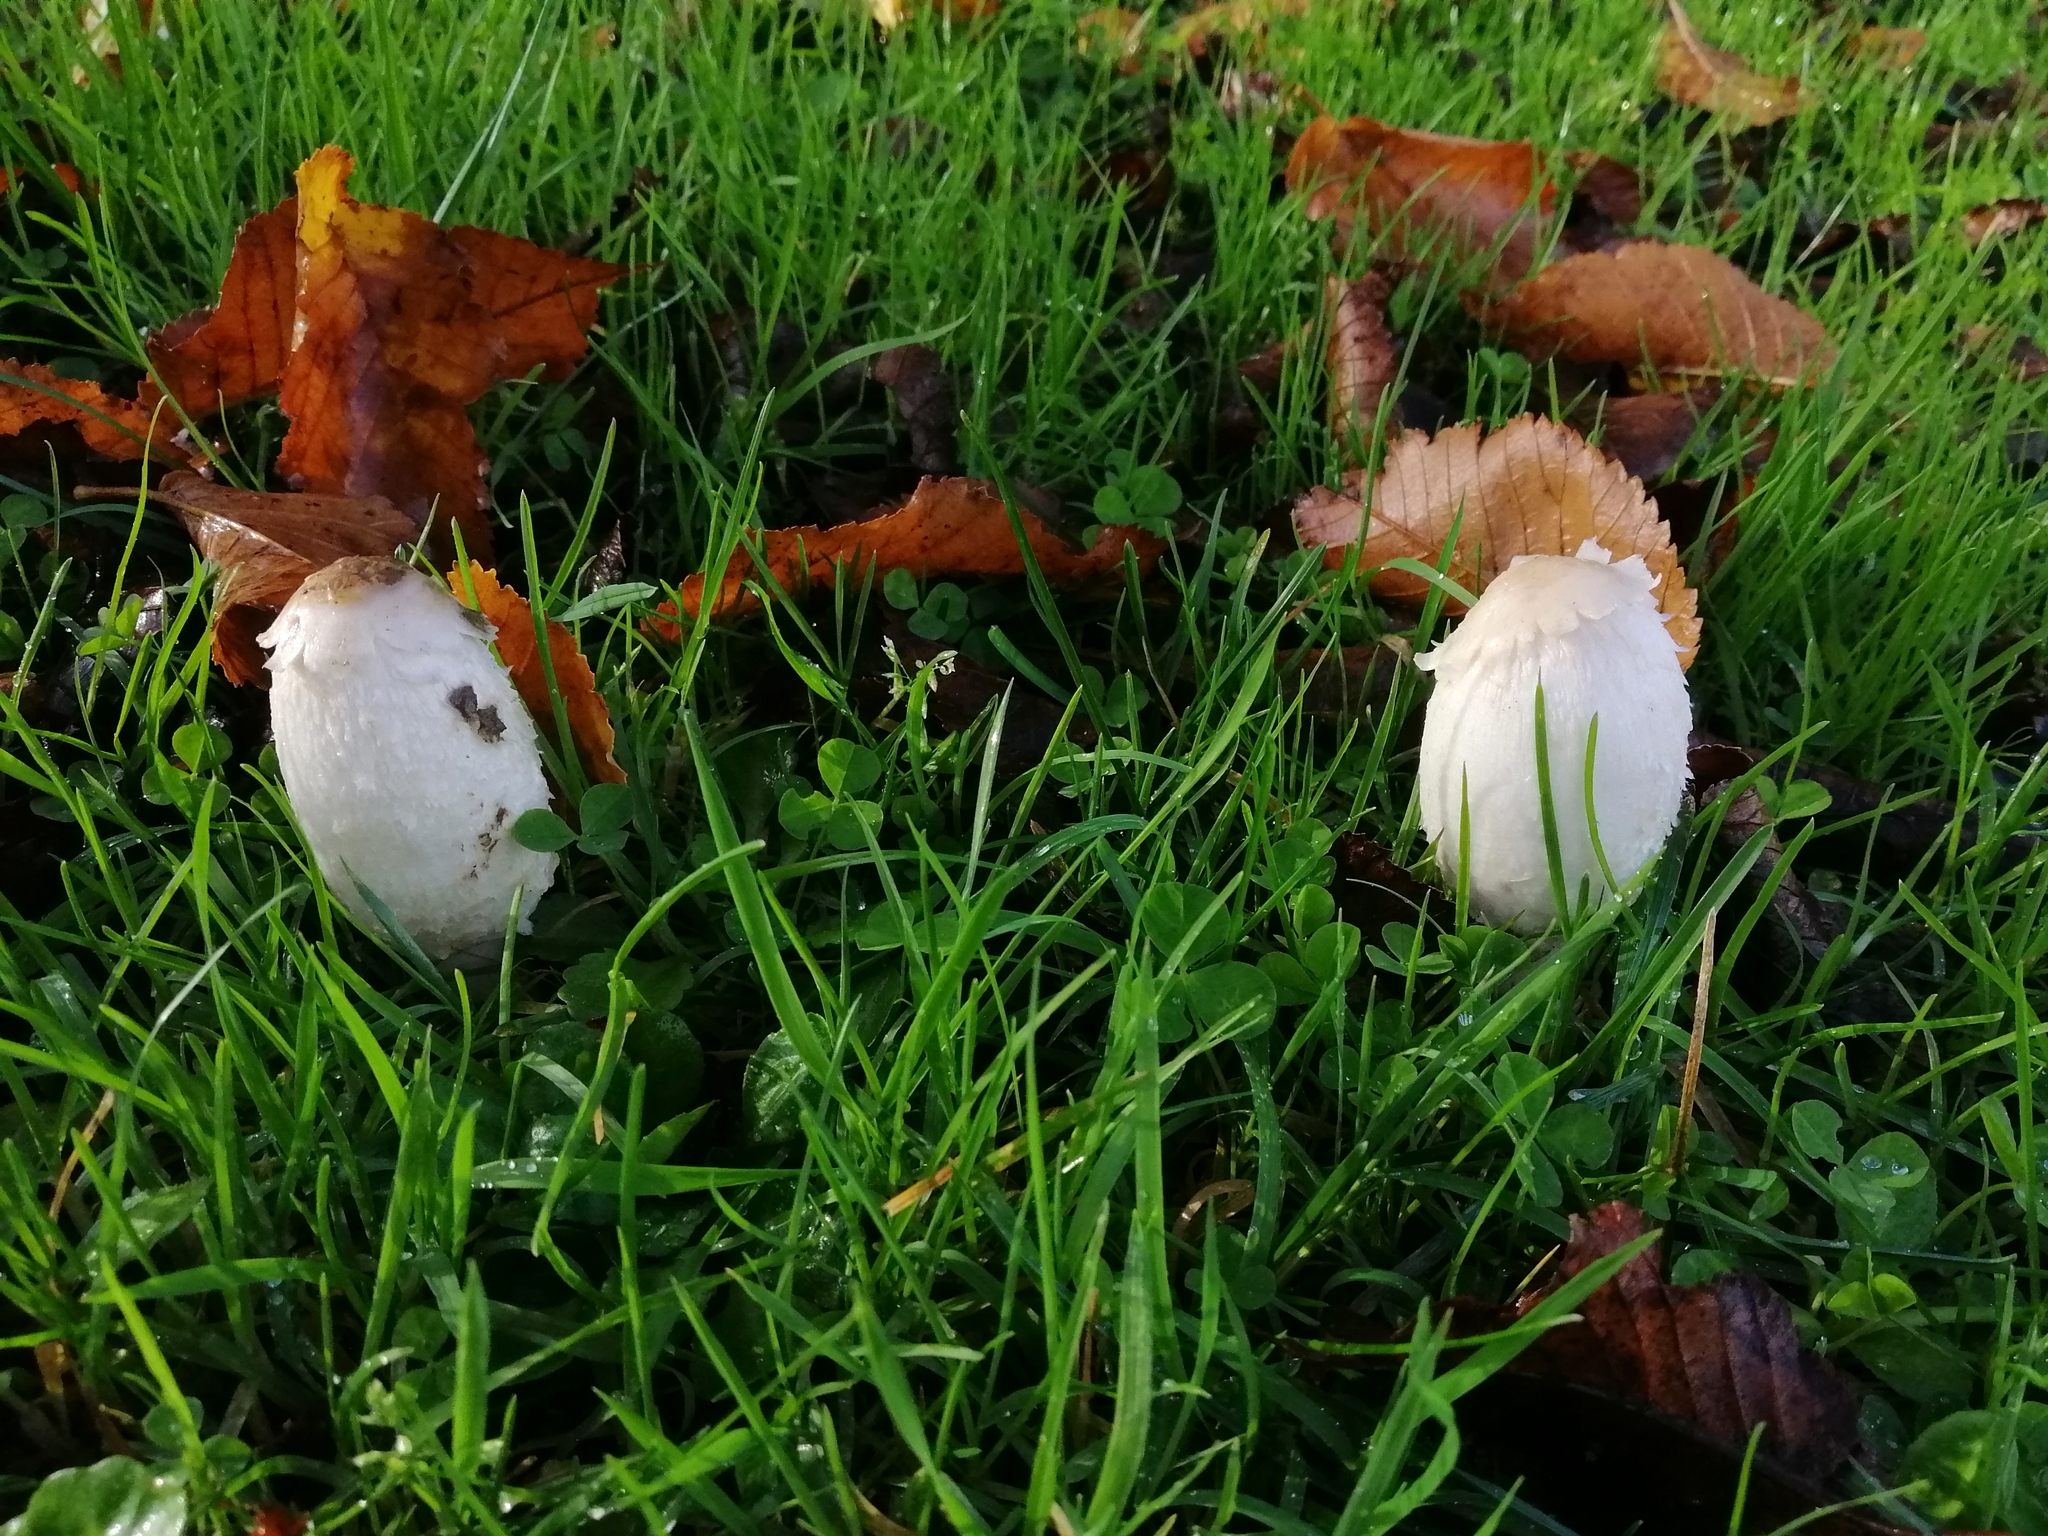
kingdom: Fungi
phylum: Basidiomycota
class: Agaricomycetes
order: Agaricales
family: Agaricaceae
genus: Coprinus
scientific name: Coprinus comatus
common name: Lawyer's wig
